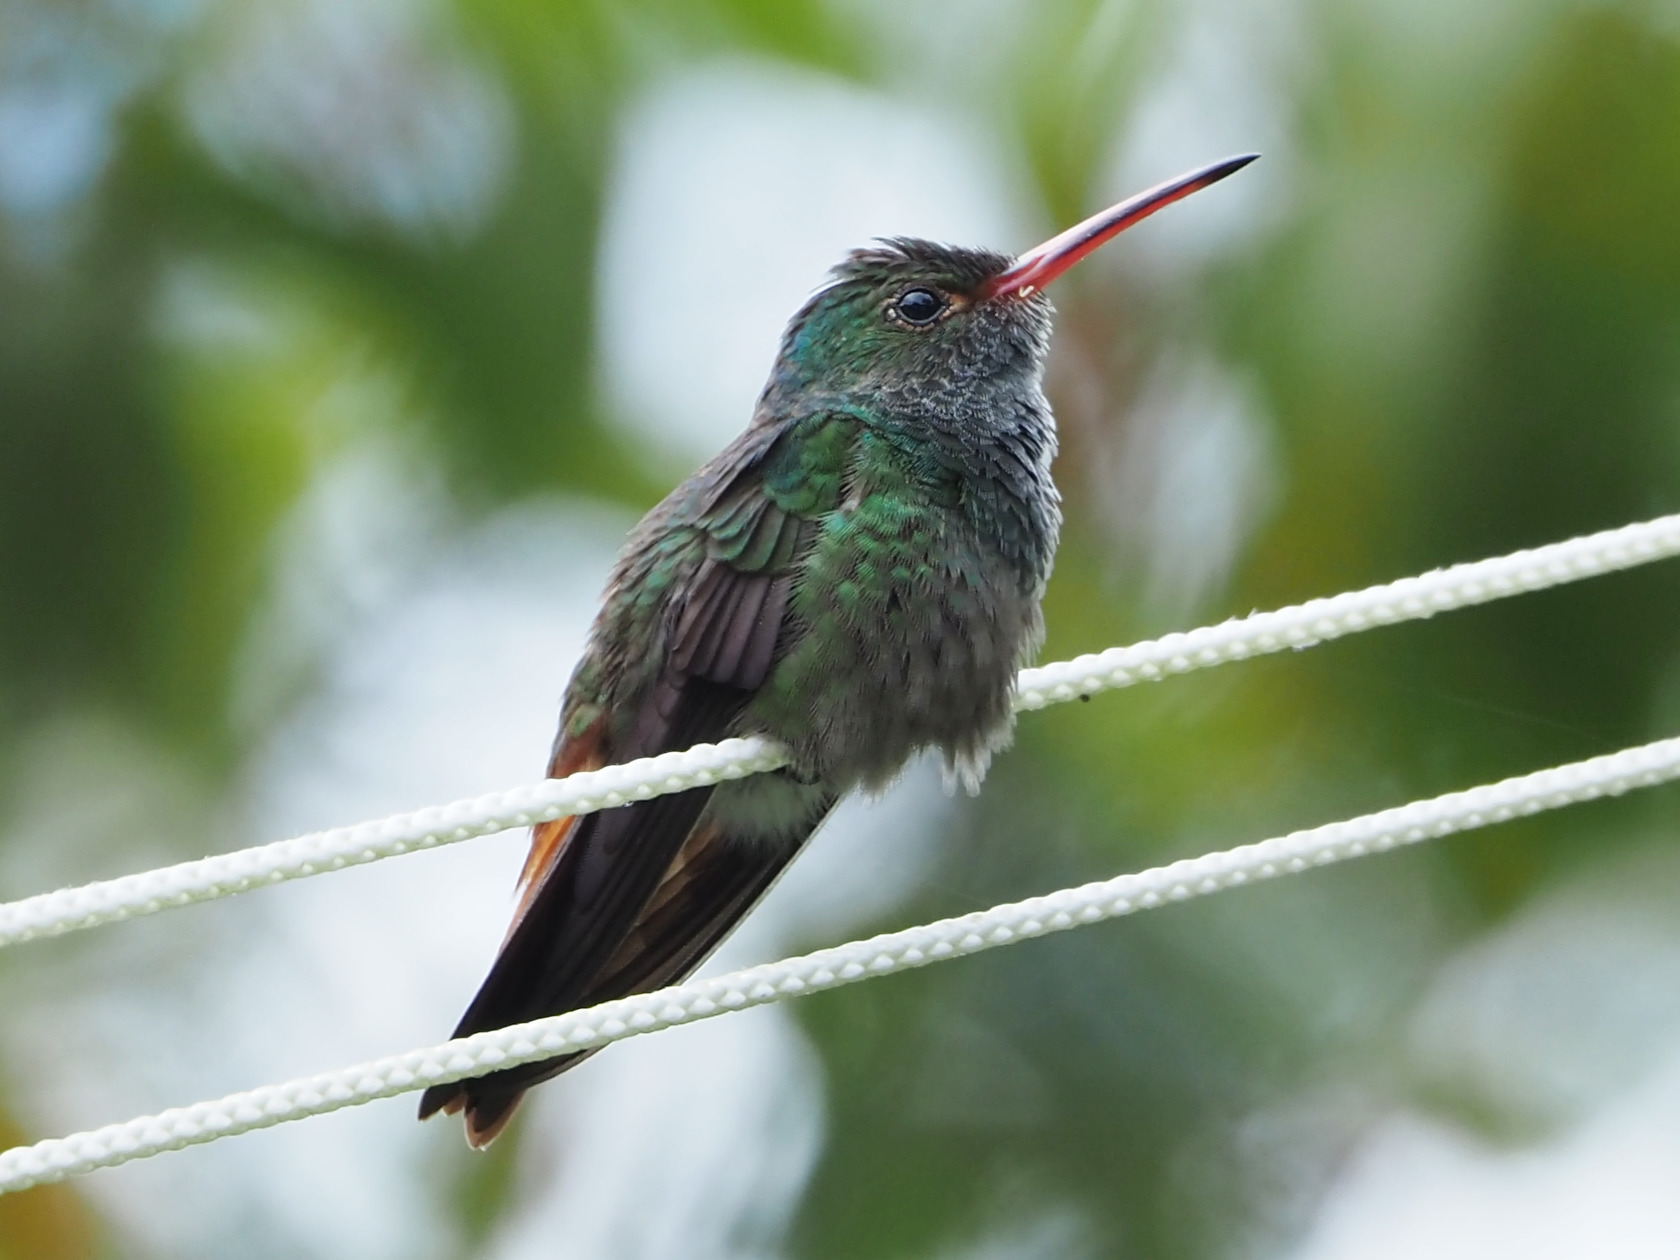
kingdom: Animalia
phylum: Chordata
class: Aves
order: Apodiformes
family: Trochilidae
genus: Amazilia
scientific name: Amazilia tzacatl
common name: Rufous-tailed hummingbird
